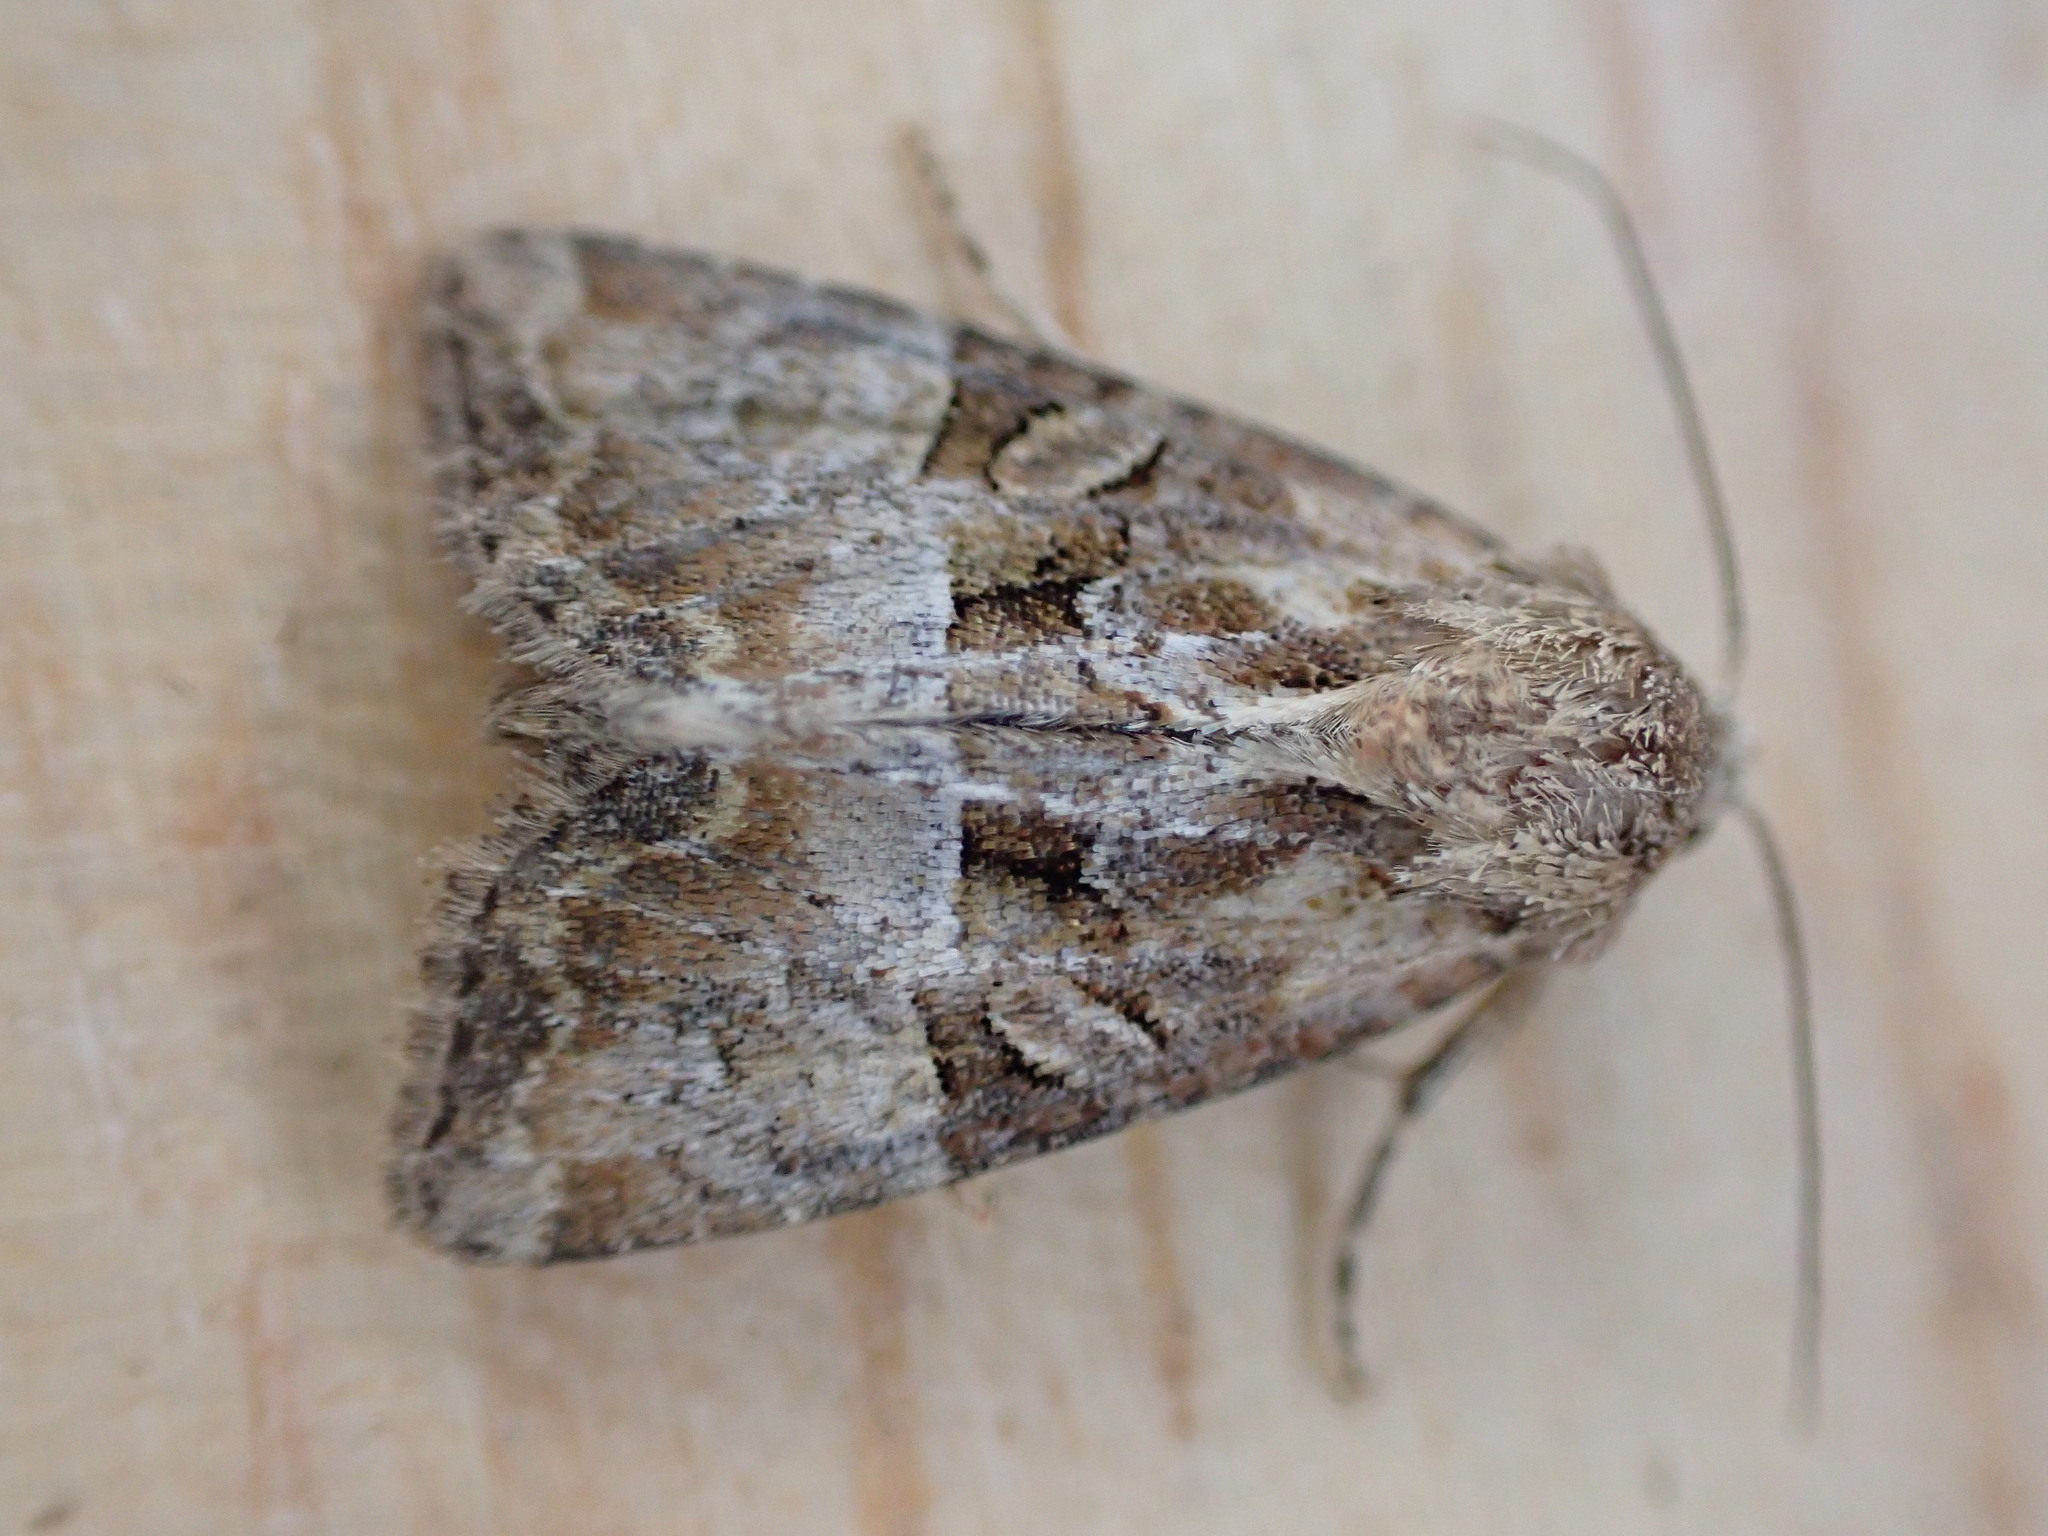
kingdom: Animalia
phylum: Arthropoda
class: Insecta
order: Lepidoptera
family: Noctuidae
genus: Mesoligia
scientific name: Mesoligia furuncula
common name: Cloaked minor
